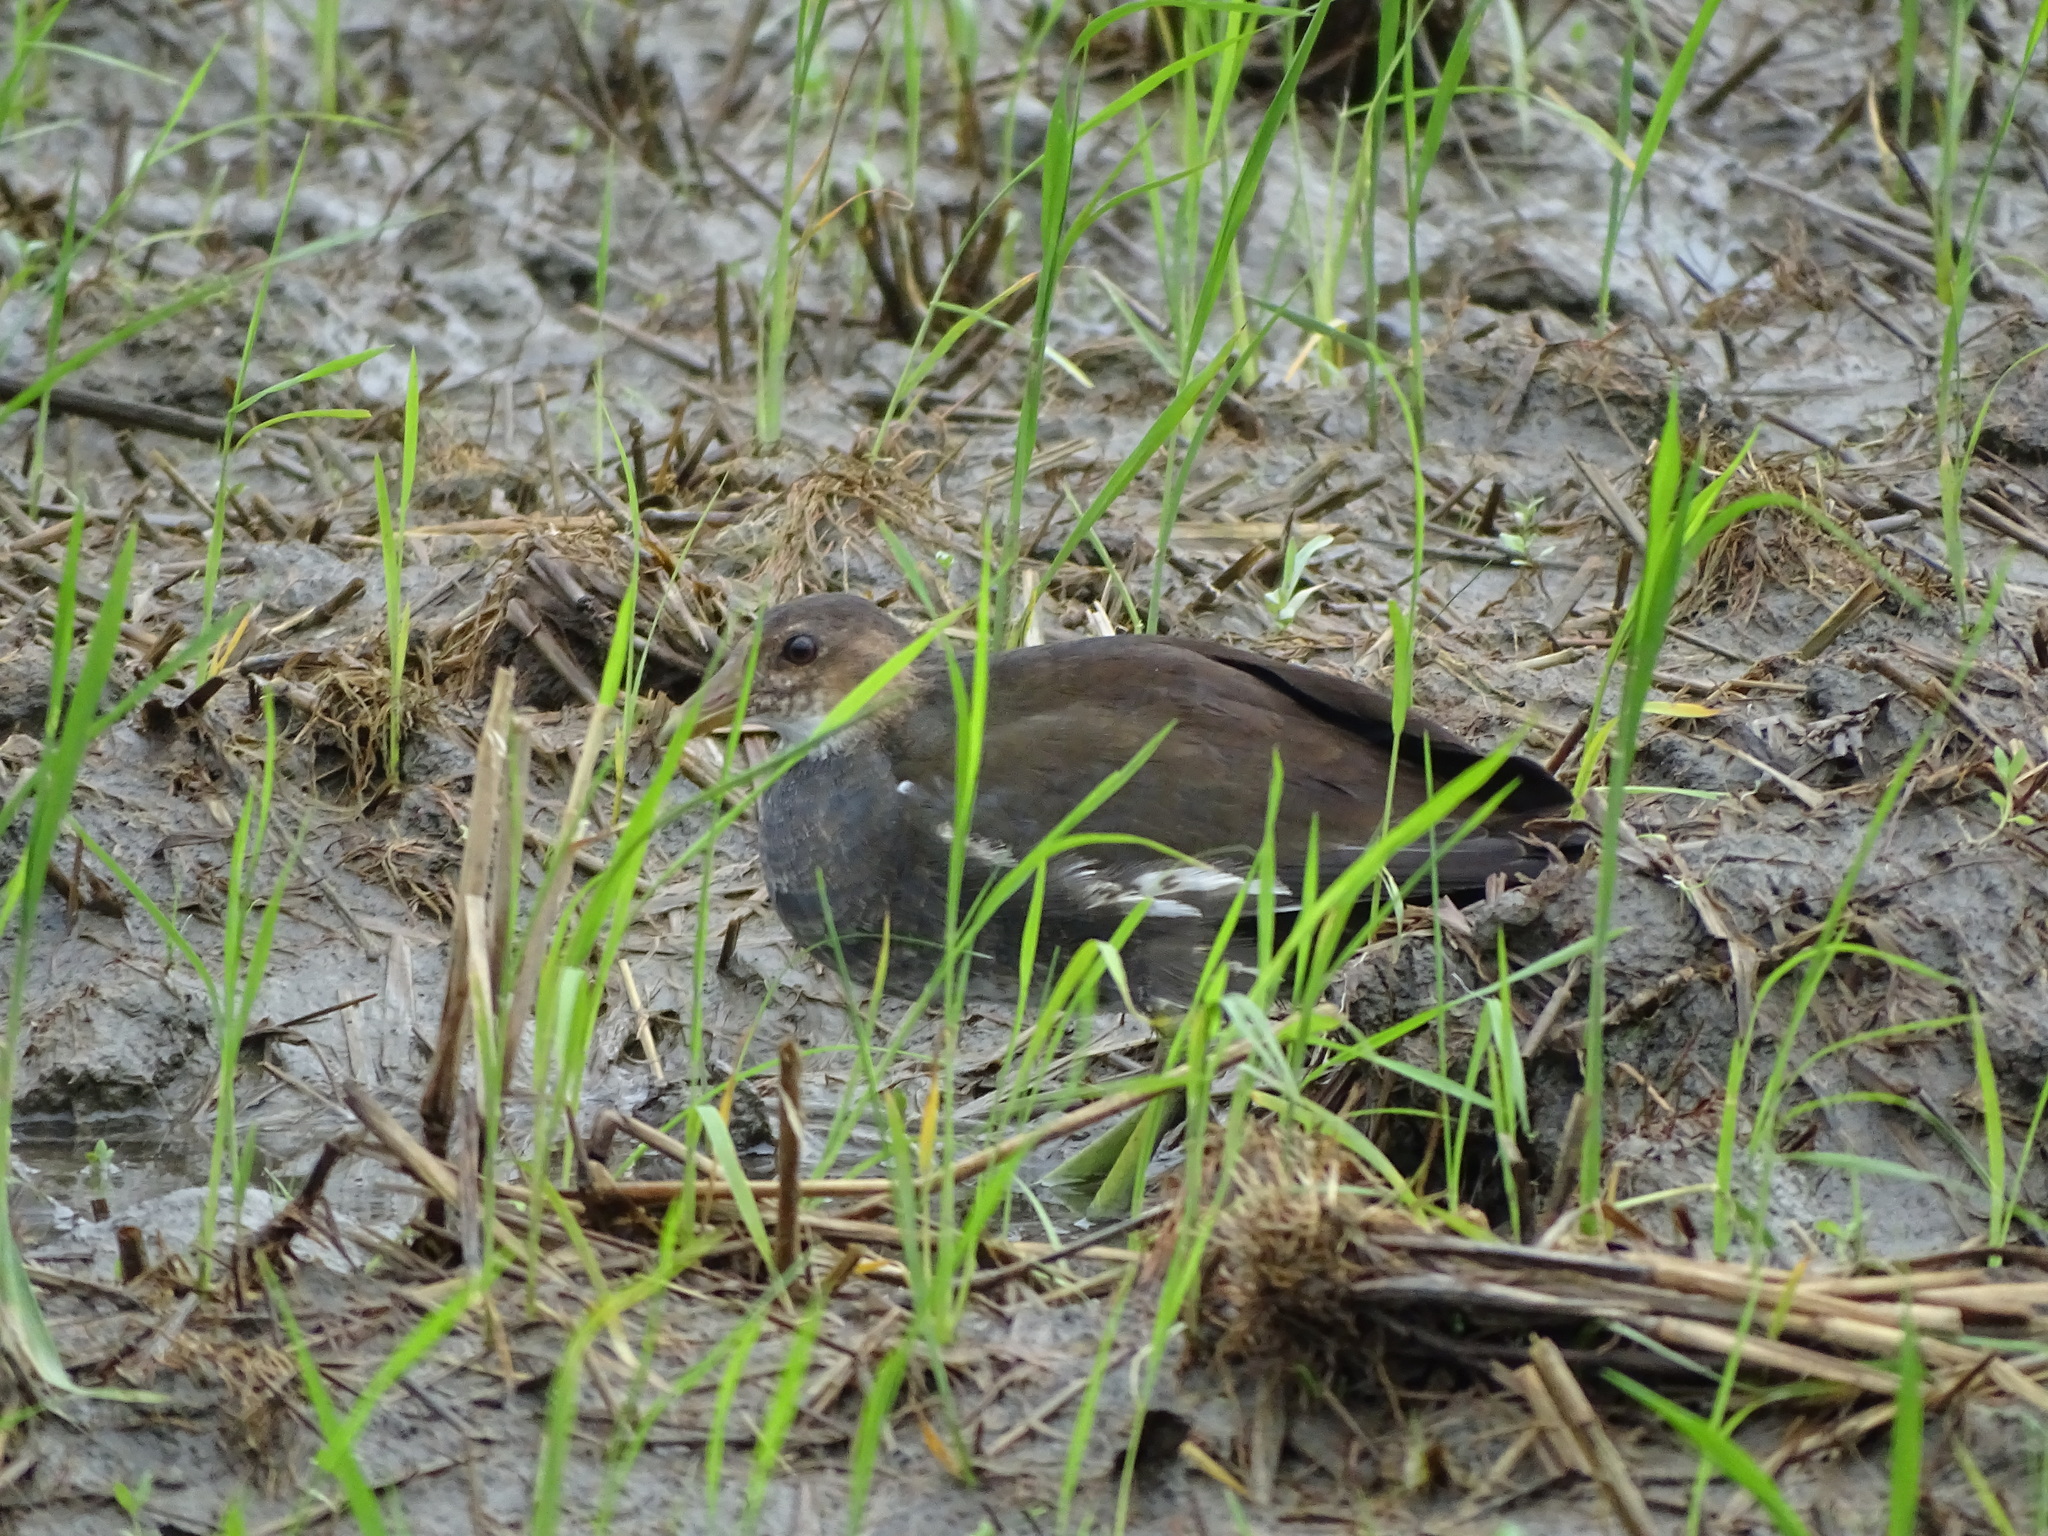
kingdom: Animalia
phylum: Chordata
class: Aves
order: Gruiformes
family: Rallidae
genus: Gallinula
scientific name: Gallinula chloropus
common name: Common moorhen
